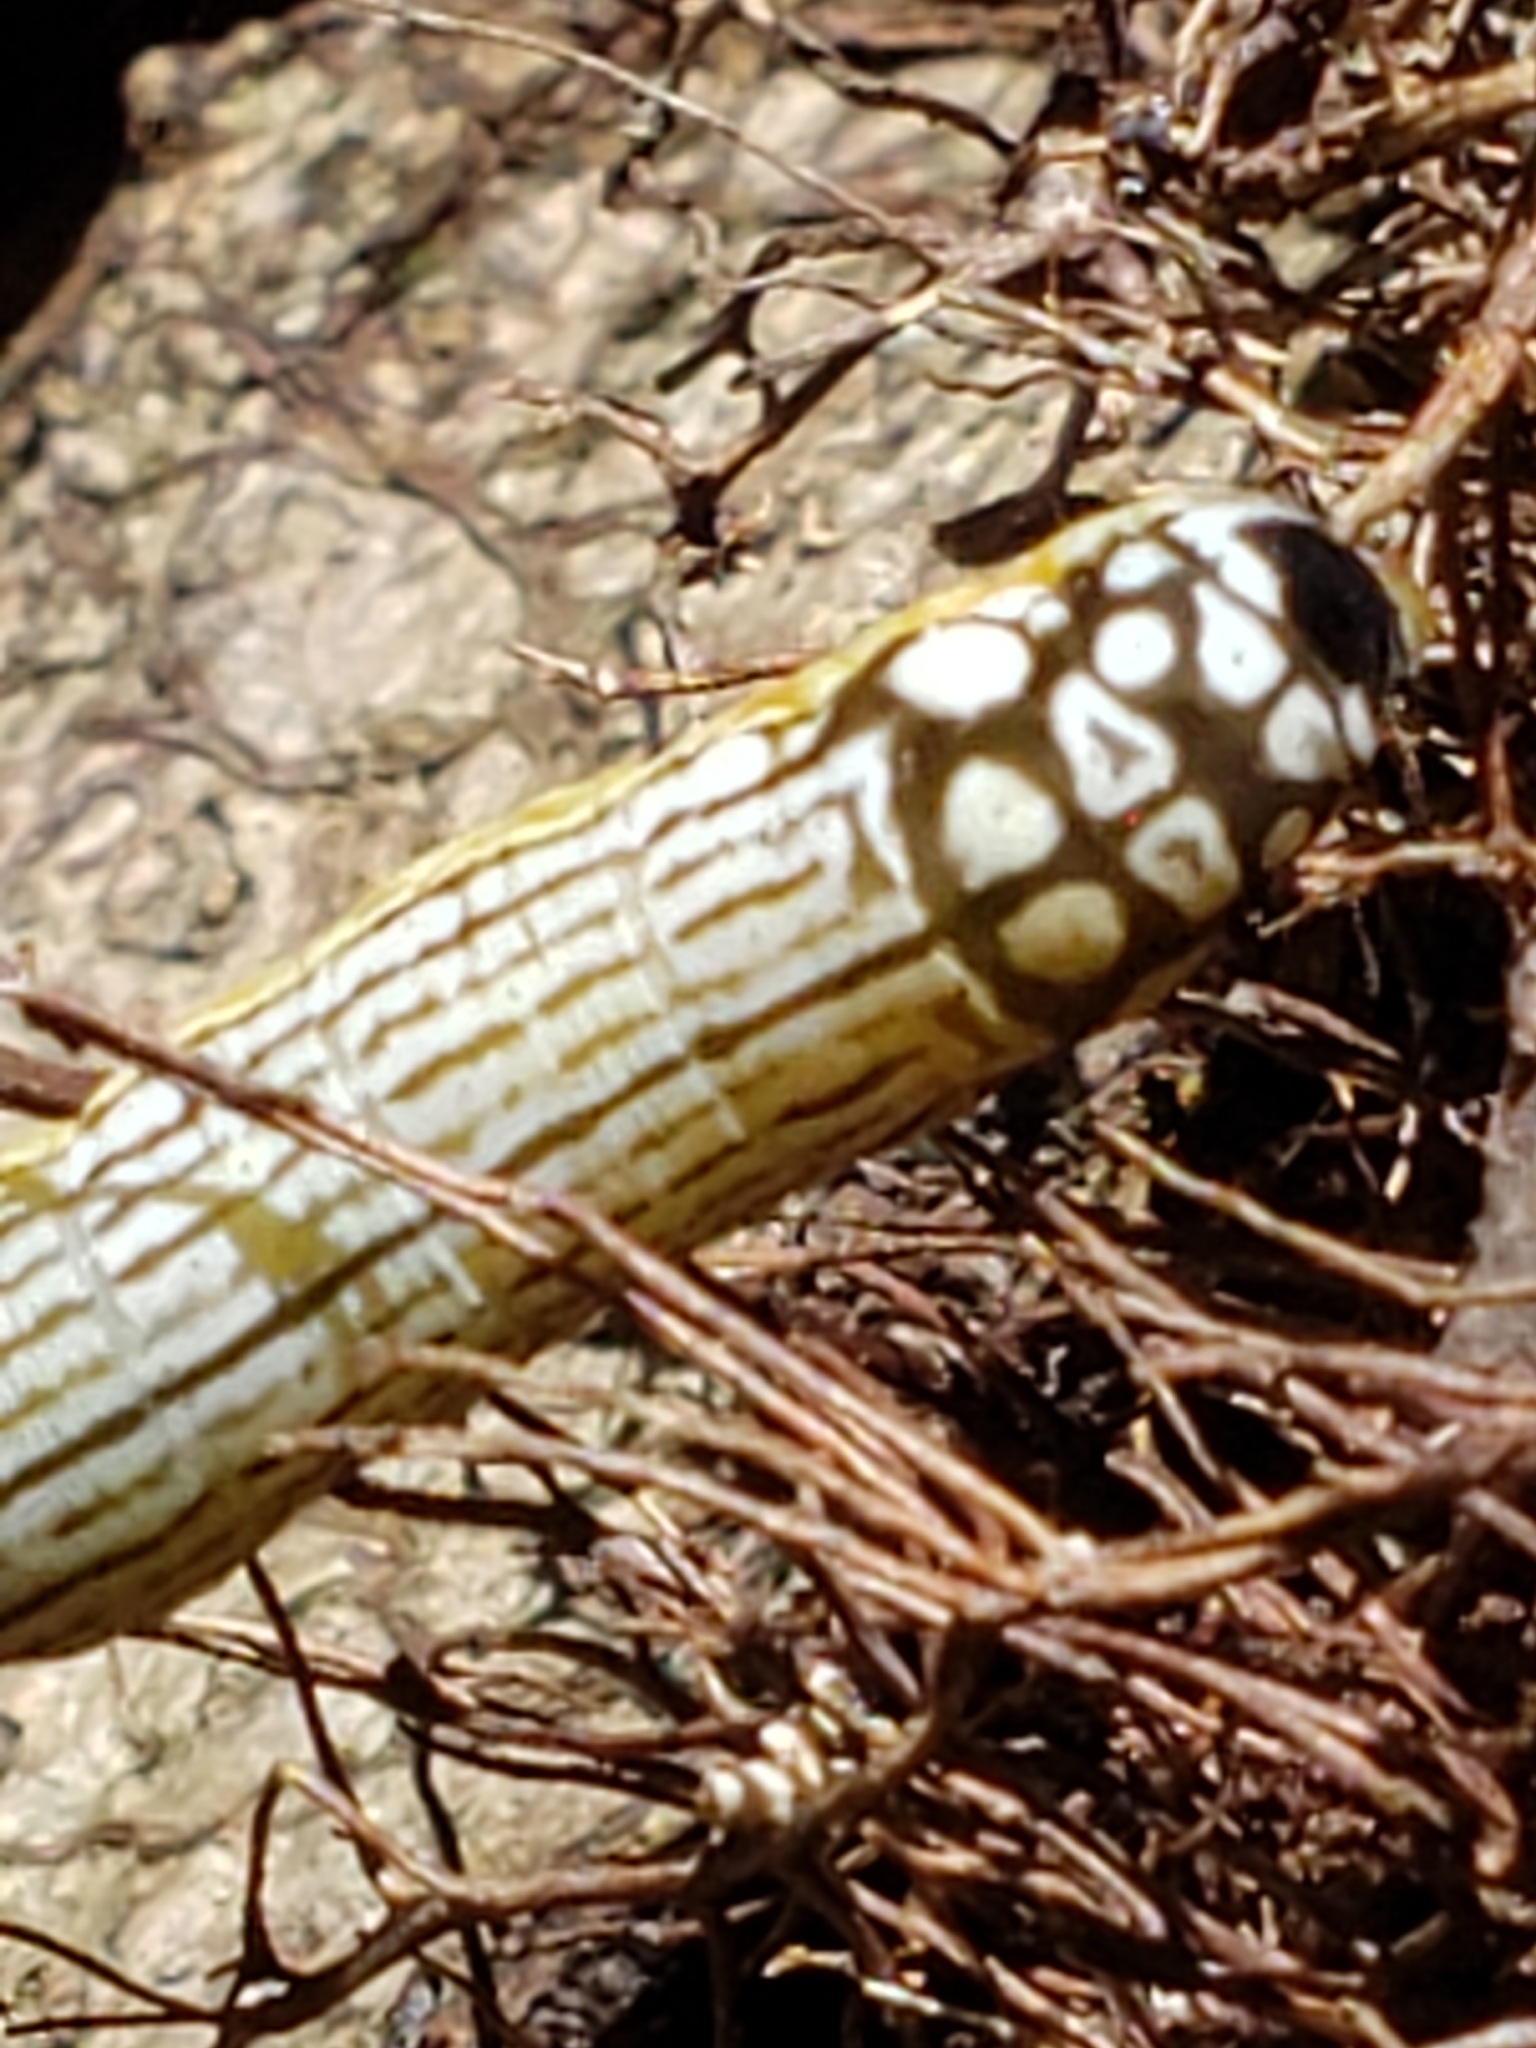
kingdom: Animalia
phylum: Arthropoda
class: Insecta
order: Lepidoptera
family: Noctuidae
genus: Phosphila
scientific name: Phosphila turbulenta
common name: Turbulent phosphila moth
